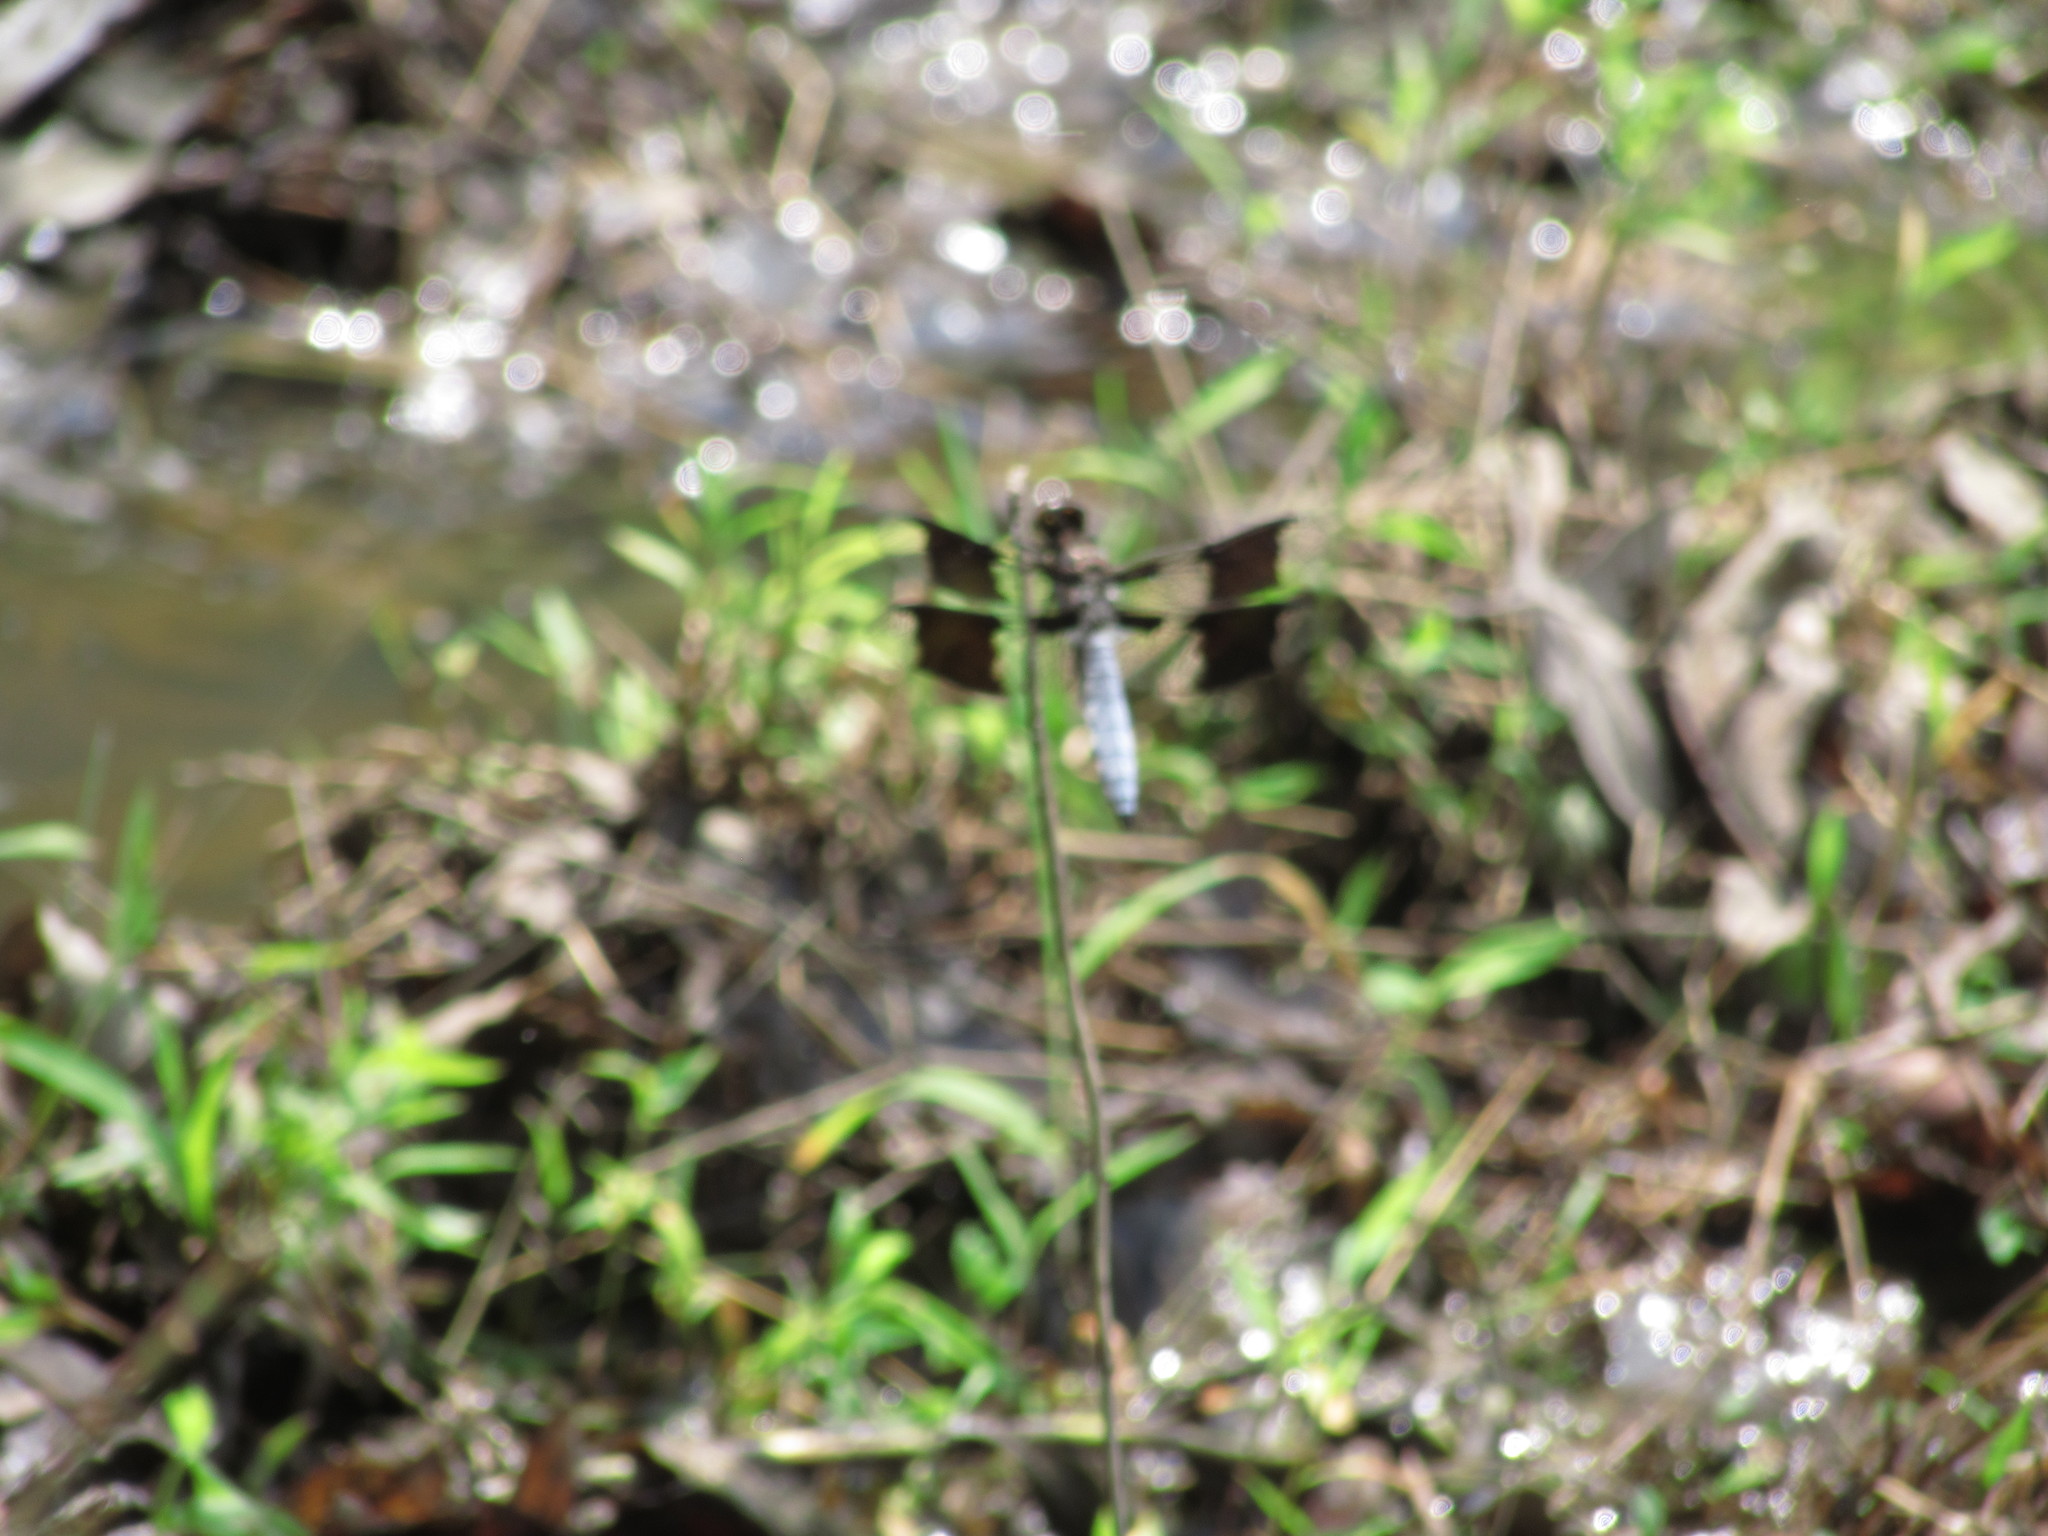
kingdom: Animalia
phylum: Arthropoda
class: Insecta
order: Odonata
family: Libellulidae
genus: Plathemis
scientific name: Plathemis lydia
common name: Common whitetail
